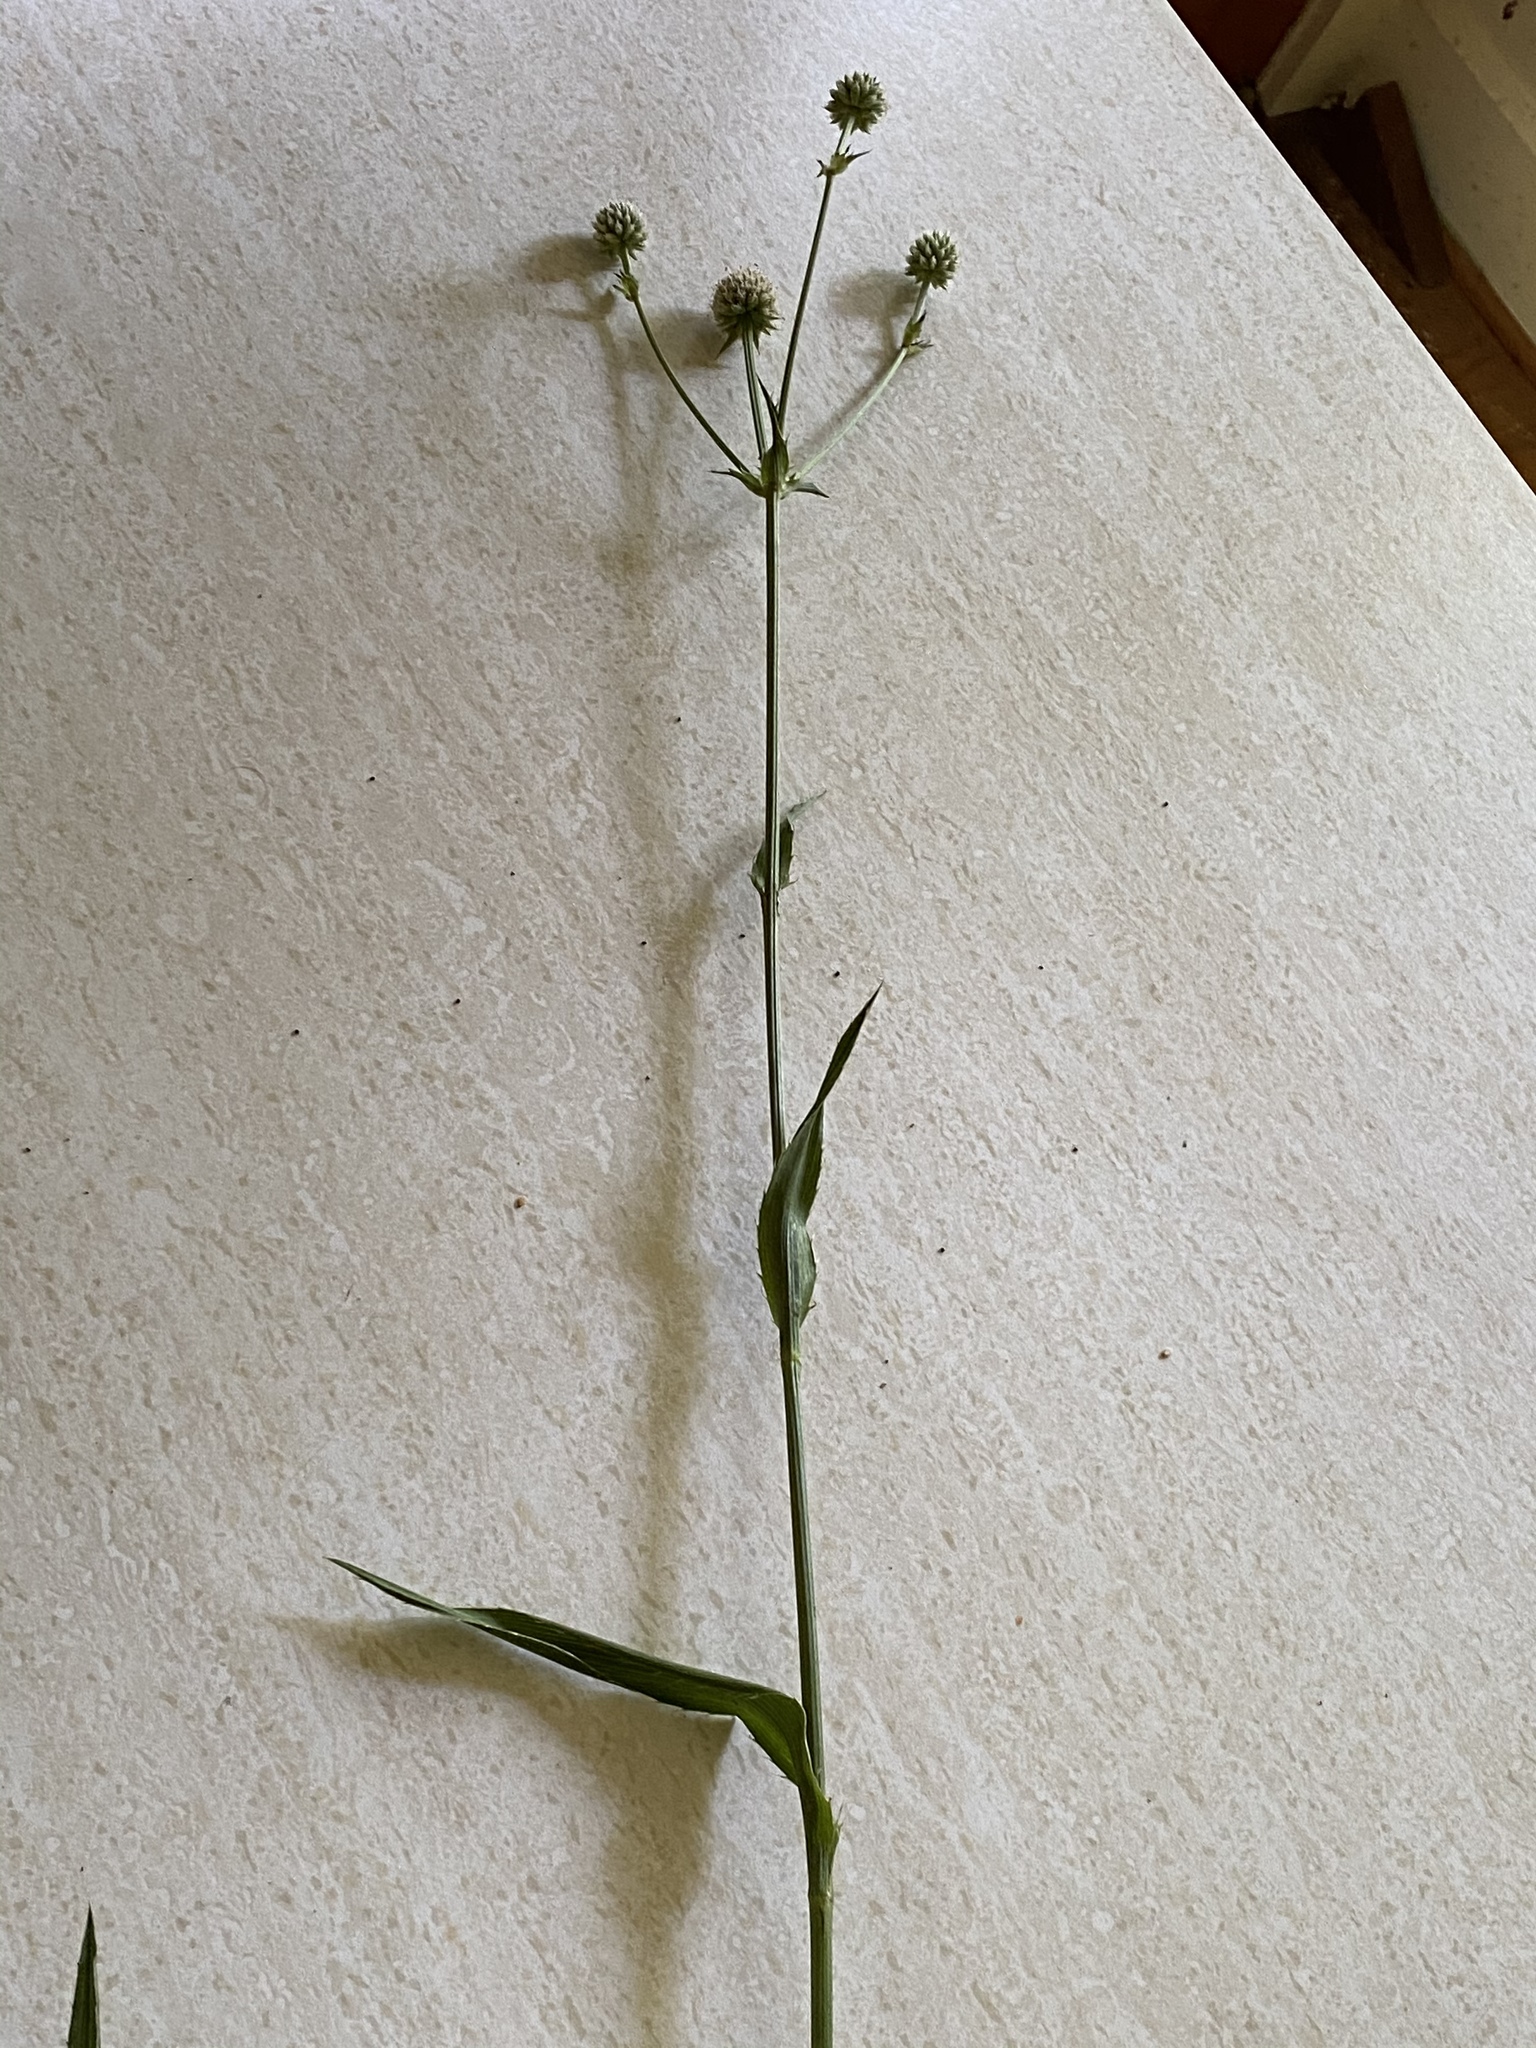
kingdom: Plantae
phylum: Tracheophyta
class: Magnoliopsida
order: Apiales
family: Apiaceae
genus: Eryngium
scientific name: Eryngium yuccifolium
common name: Button eryngo
